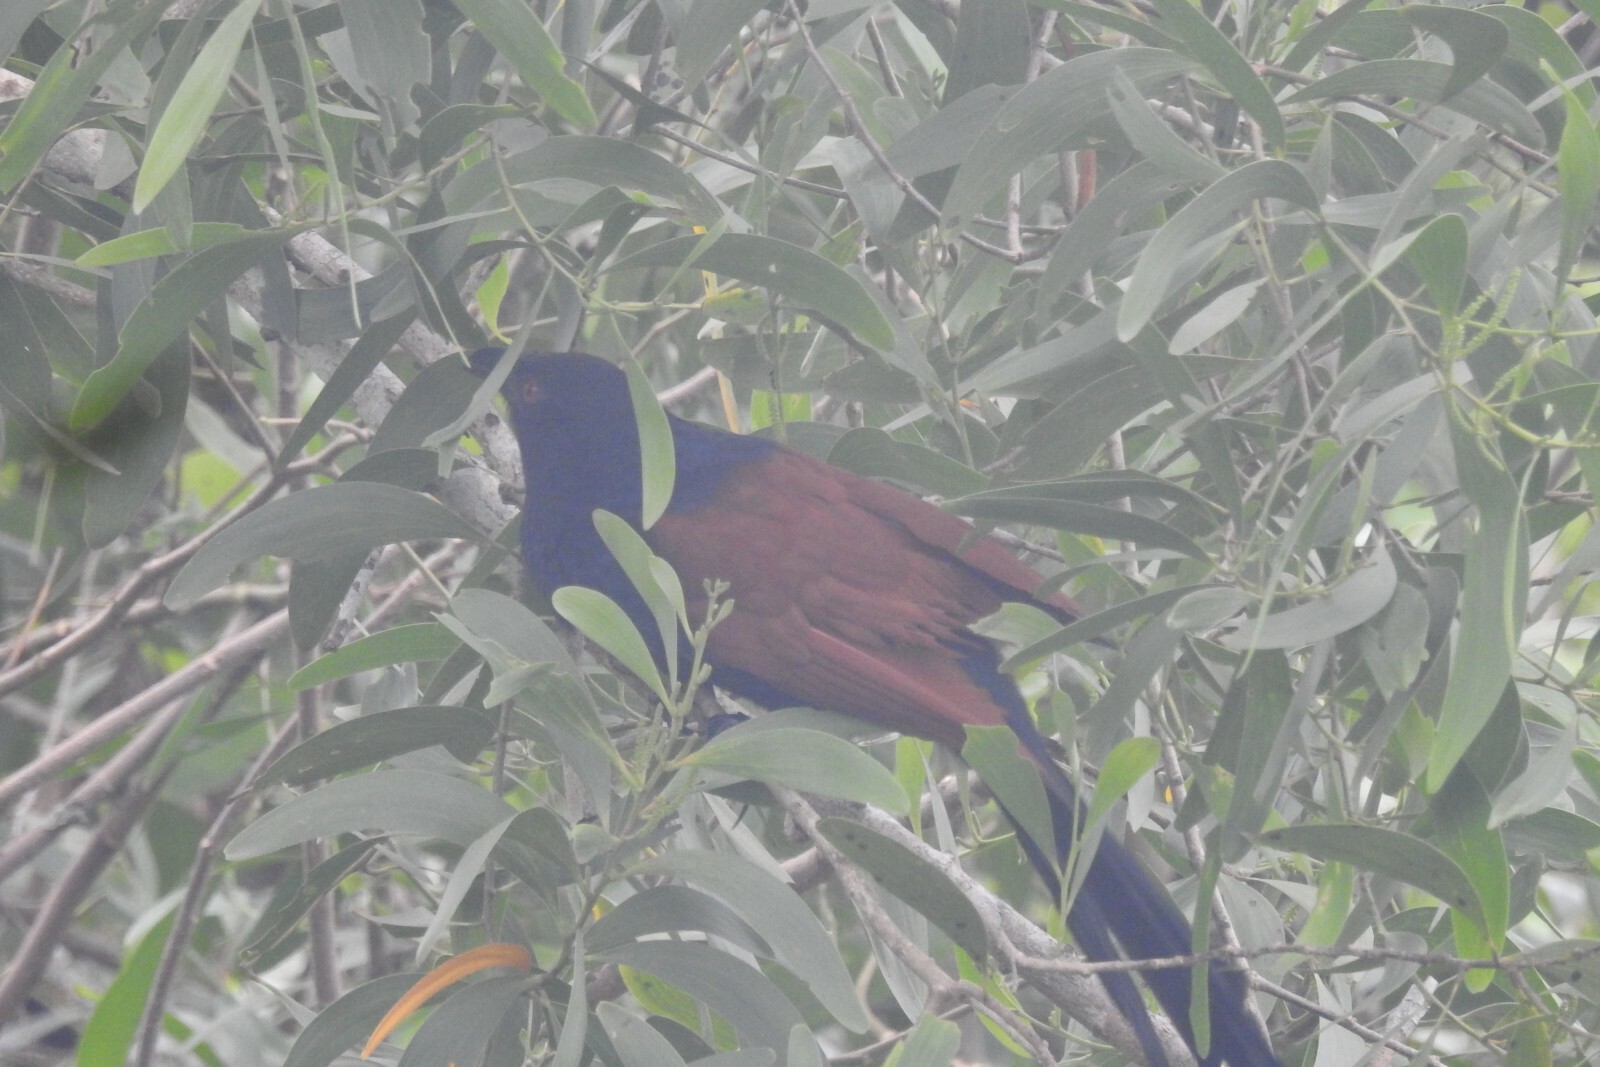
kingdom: Animalia
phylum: Chordata
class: Aves
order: Cuculiformes
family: Cuculidae
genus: Centropus
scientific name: Centropus sinensis
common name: Greater coucal
